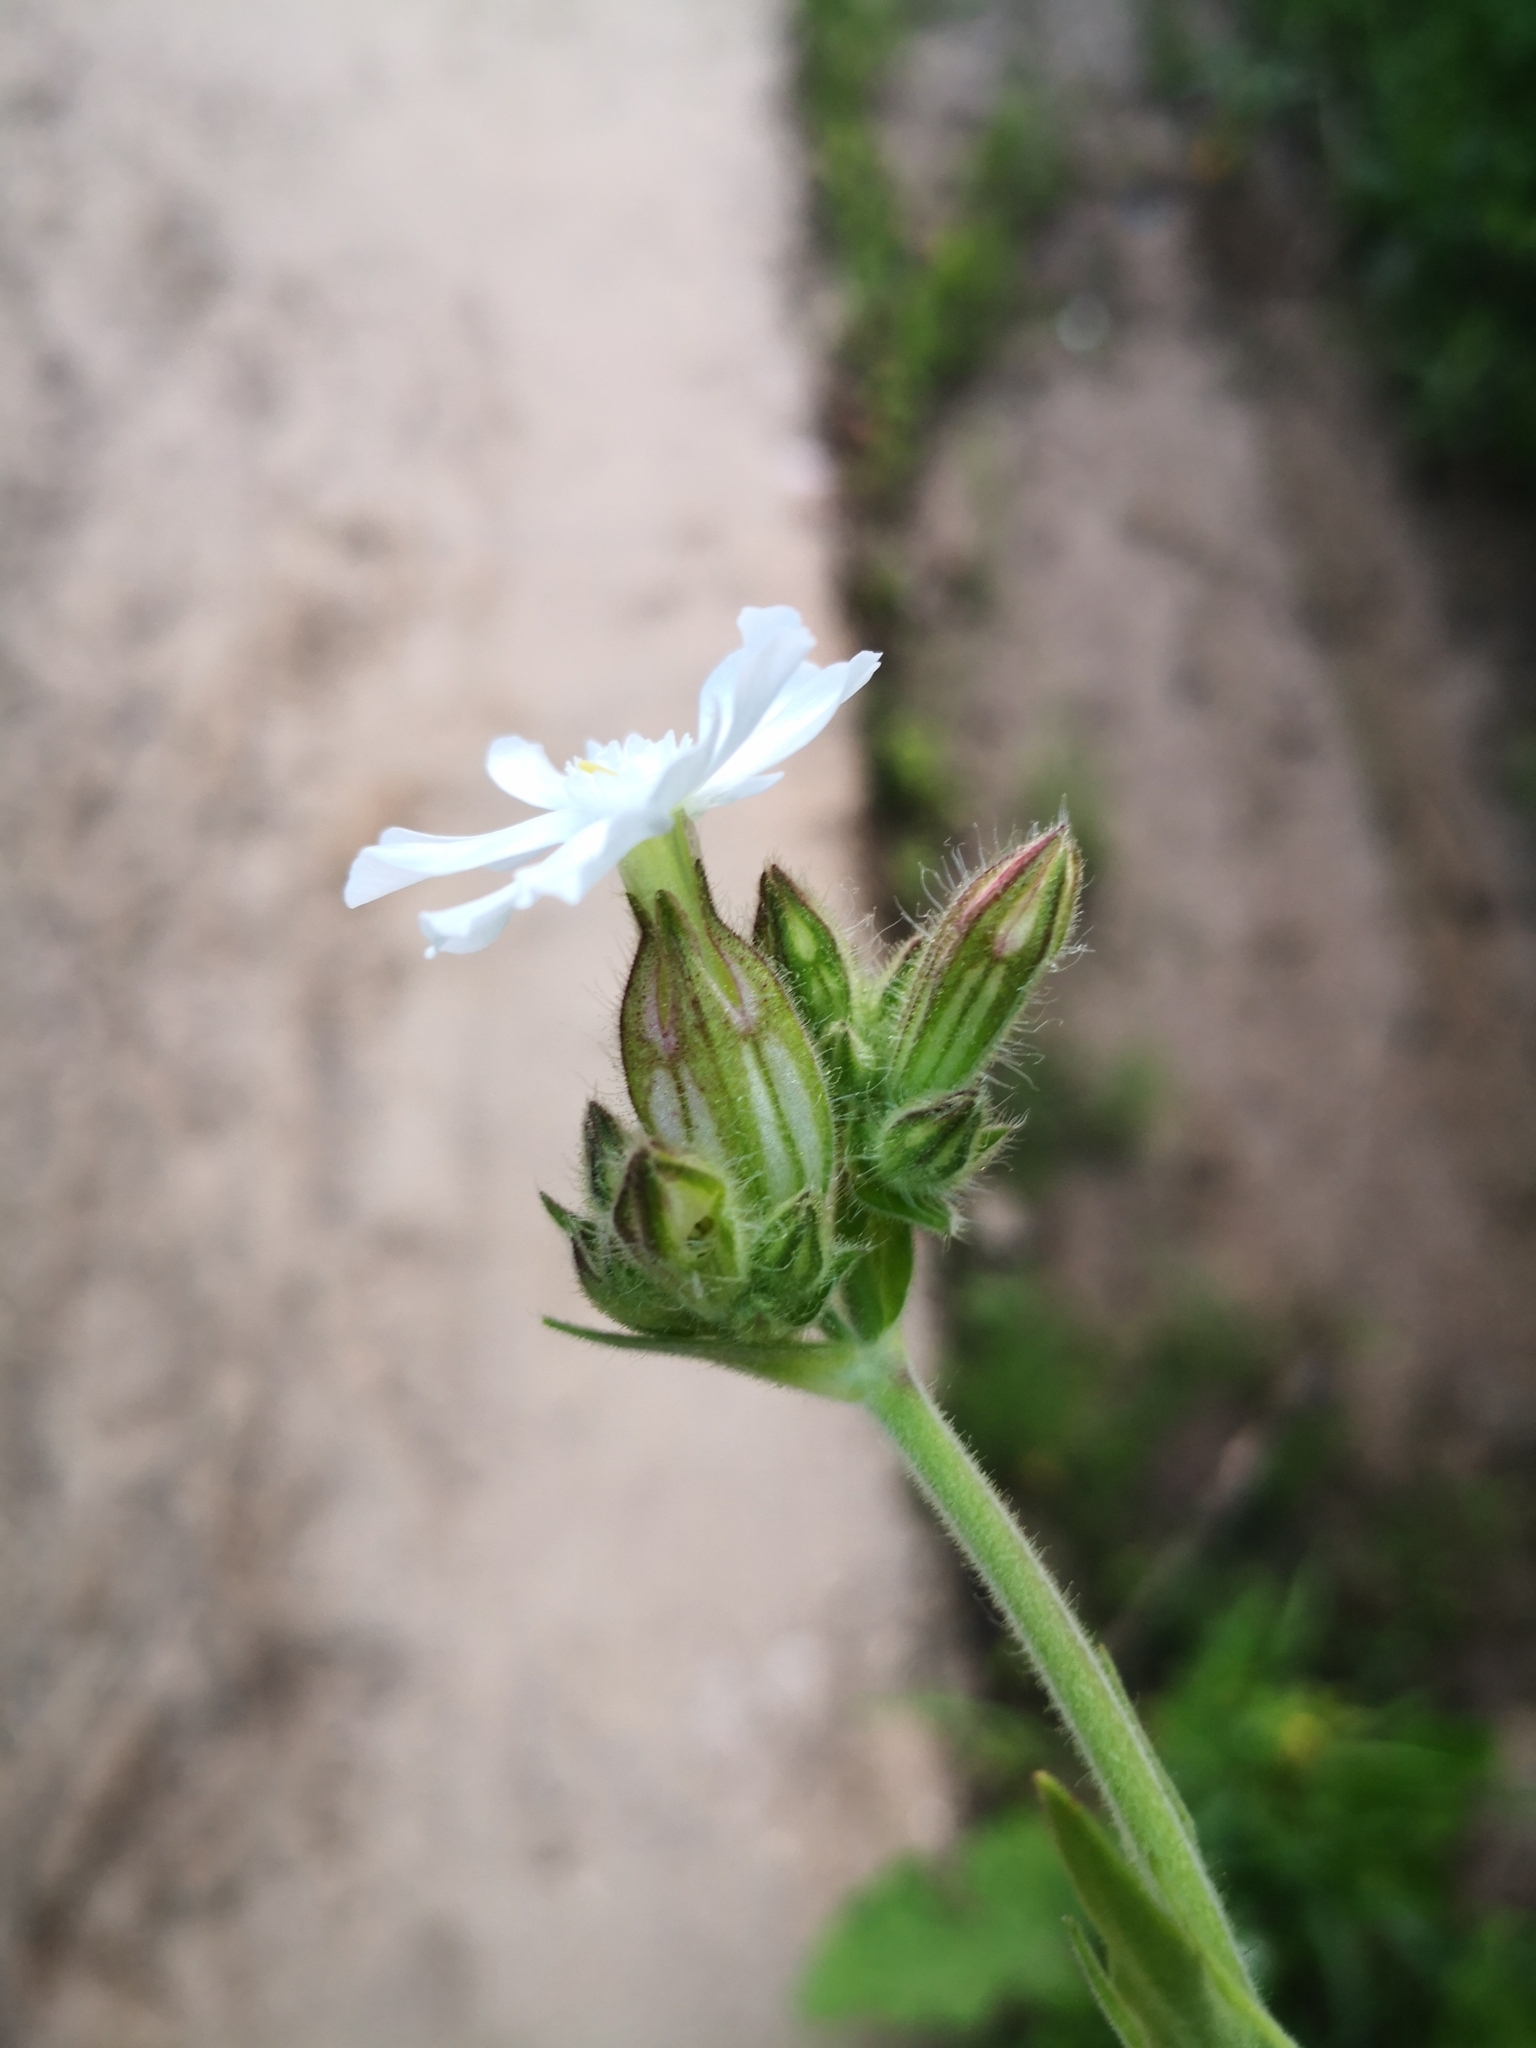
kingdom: Plantae
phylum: Tracheophyta
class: Magnoliopsida
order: Caryophyllales
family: Caryophyllaceae
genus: Silene
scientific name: Silene latifolia
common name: White campion
